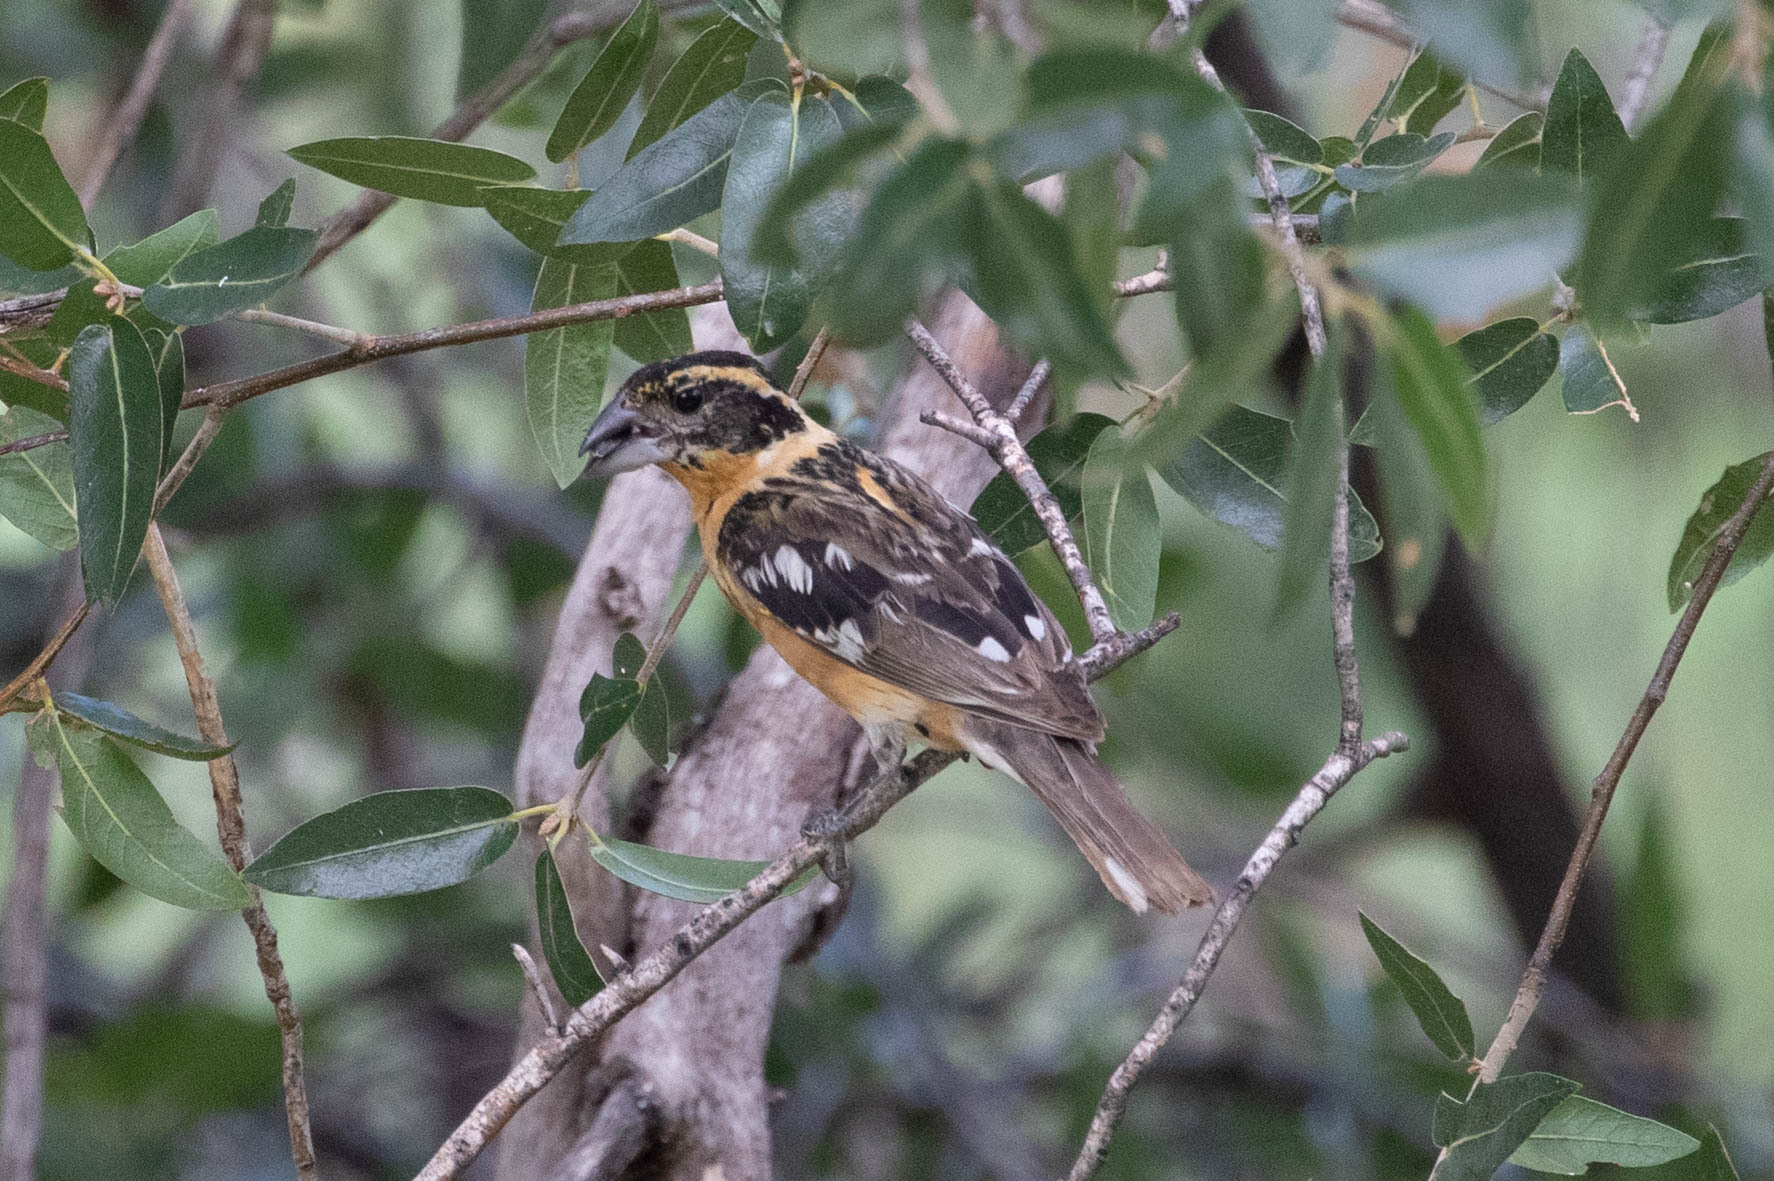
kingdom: Animalia
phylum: Chordata
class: Aves
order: Passeriformes
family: Cardinalidae
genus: Pheucticus
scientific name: Pheucticus melanocephalus
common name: Black-headed grosbeak
